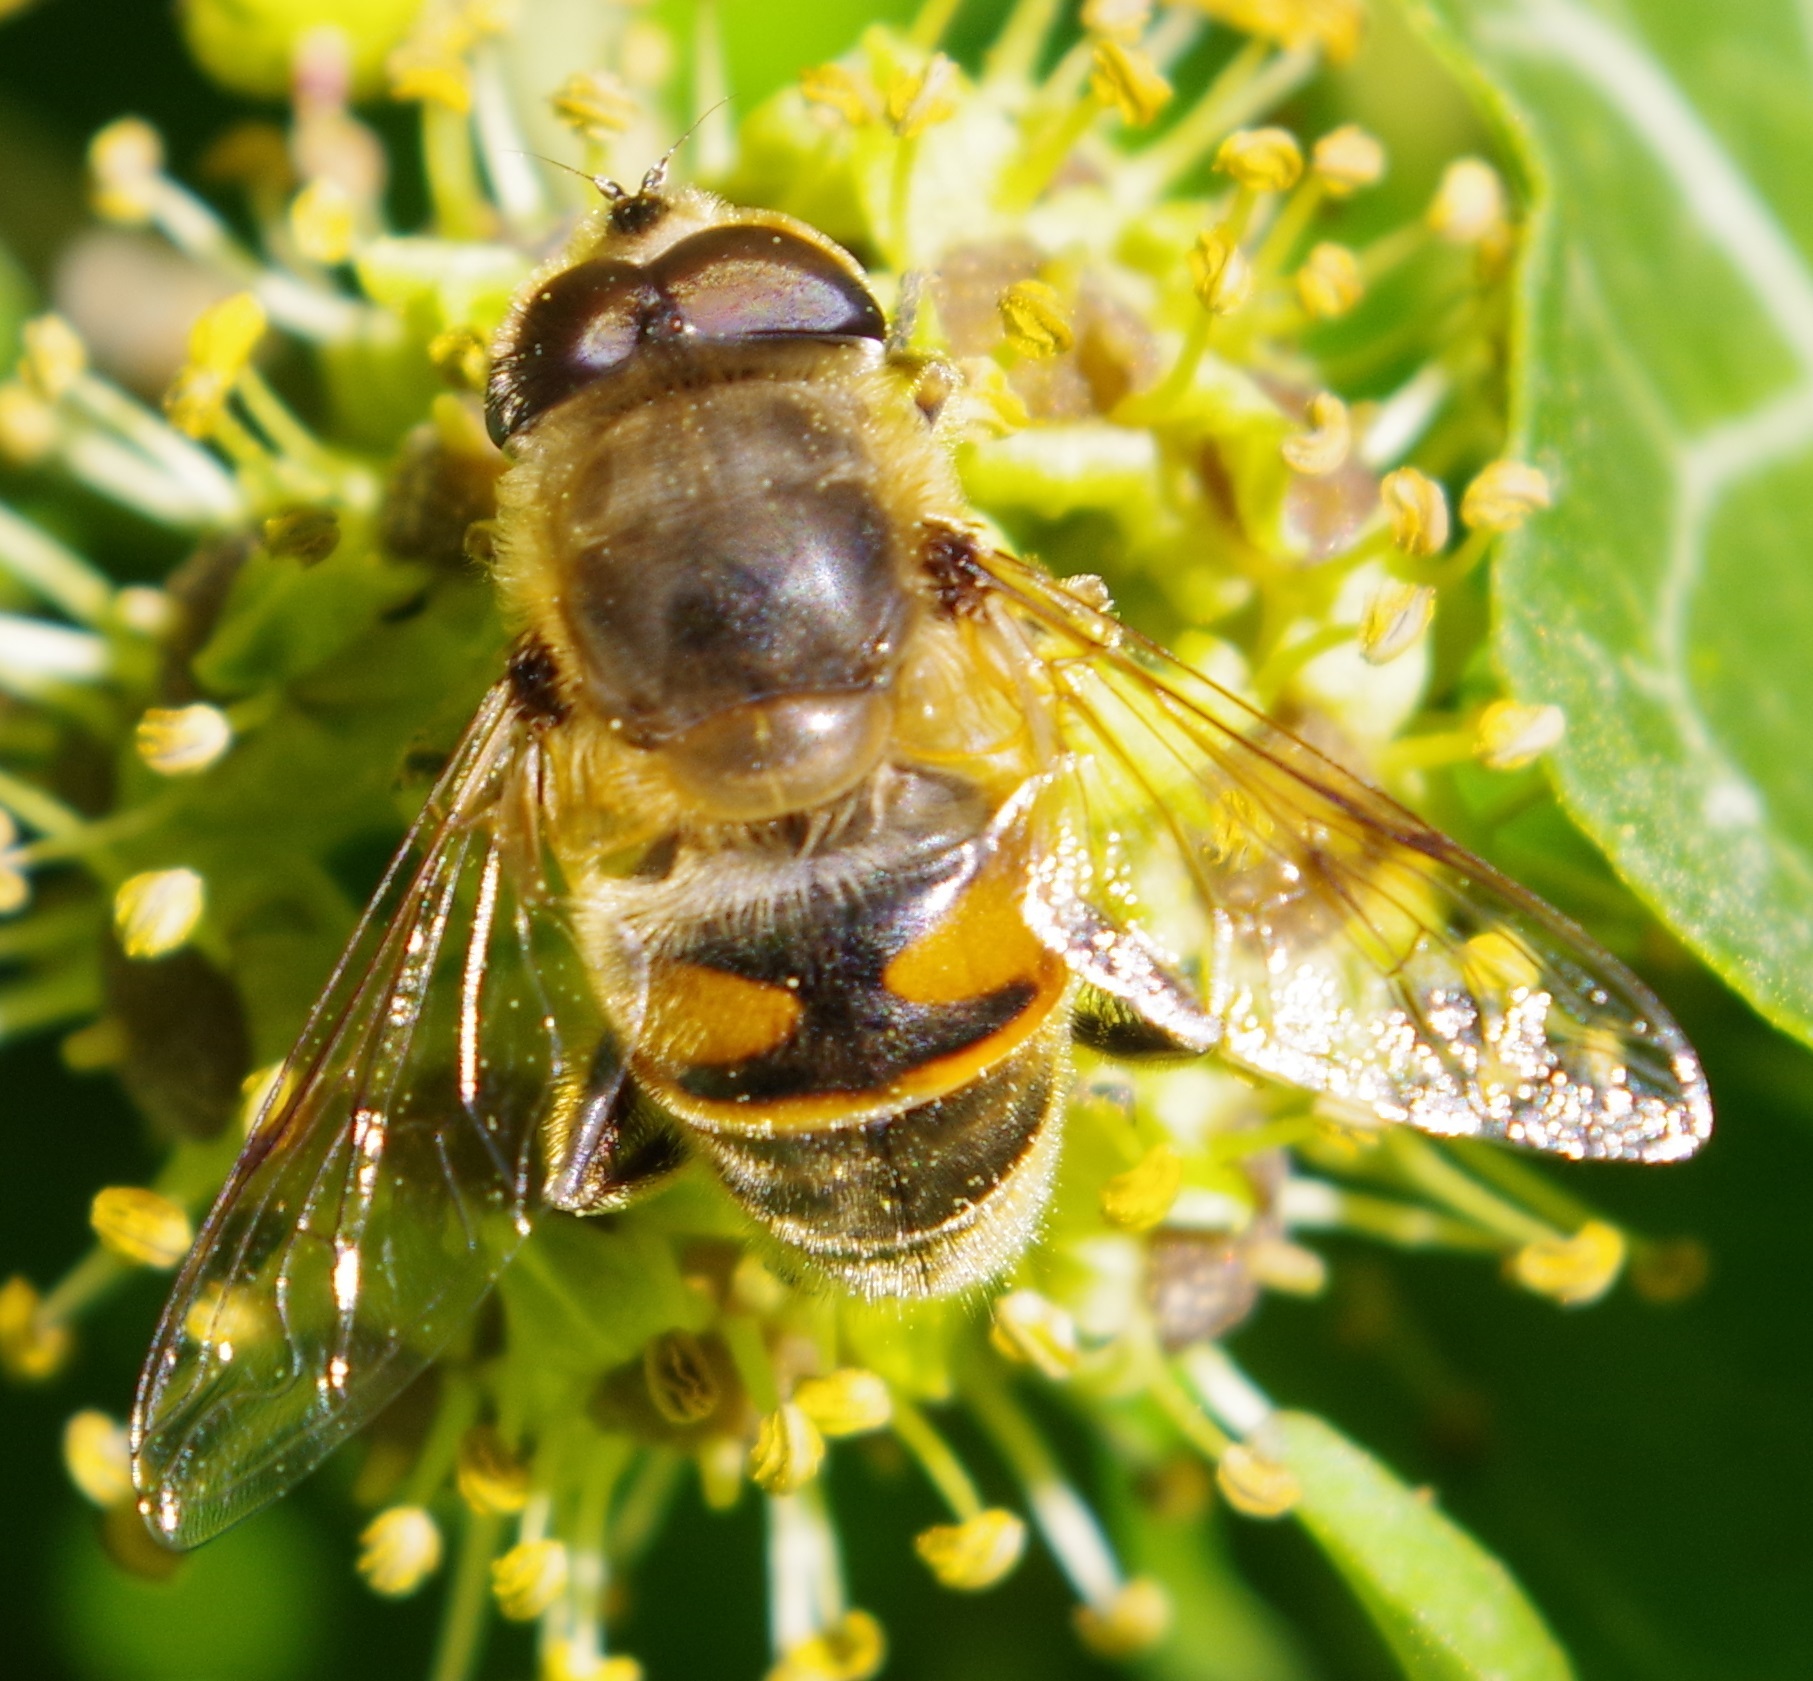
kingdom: Animalia
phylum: Arthropoda
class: Insecta
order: Diptera
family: Syrphidae
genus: Eristalis
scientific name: Eristalis tenax
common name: Drone fly
